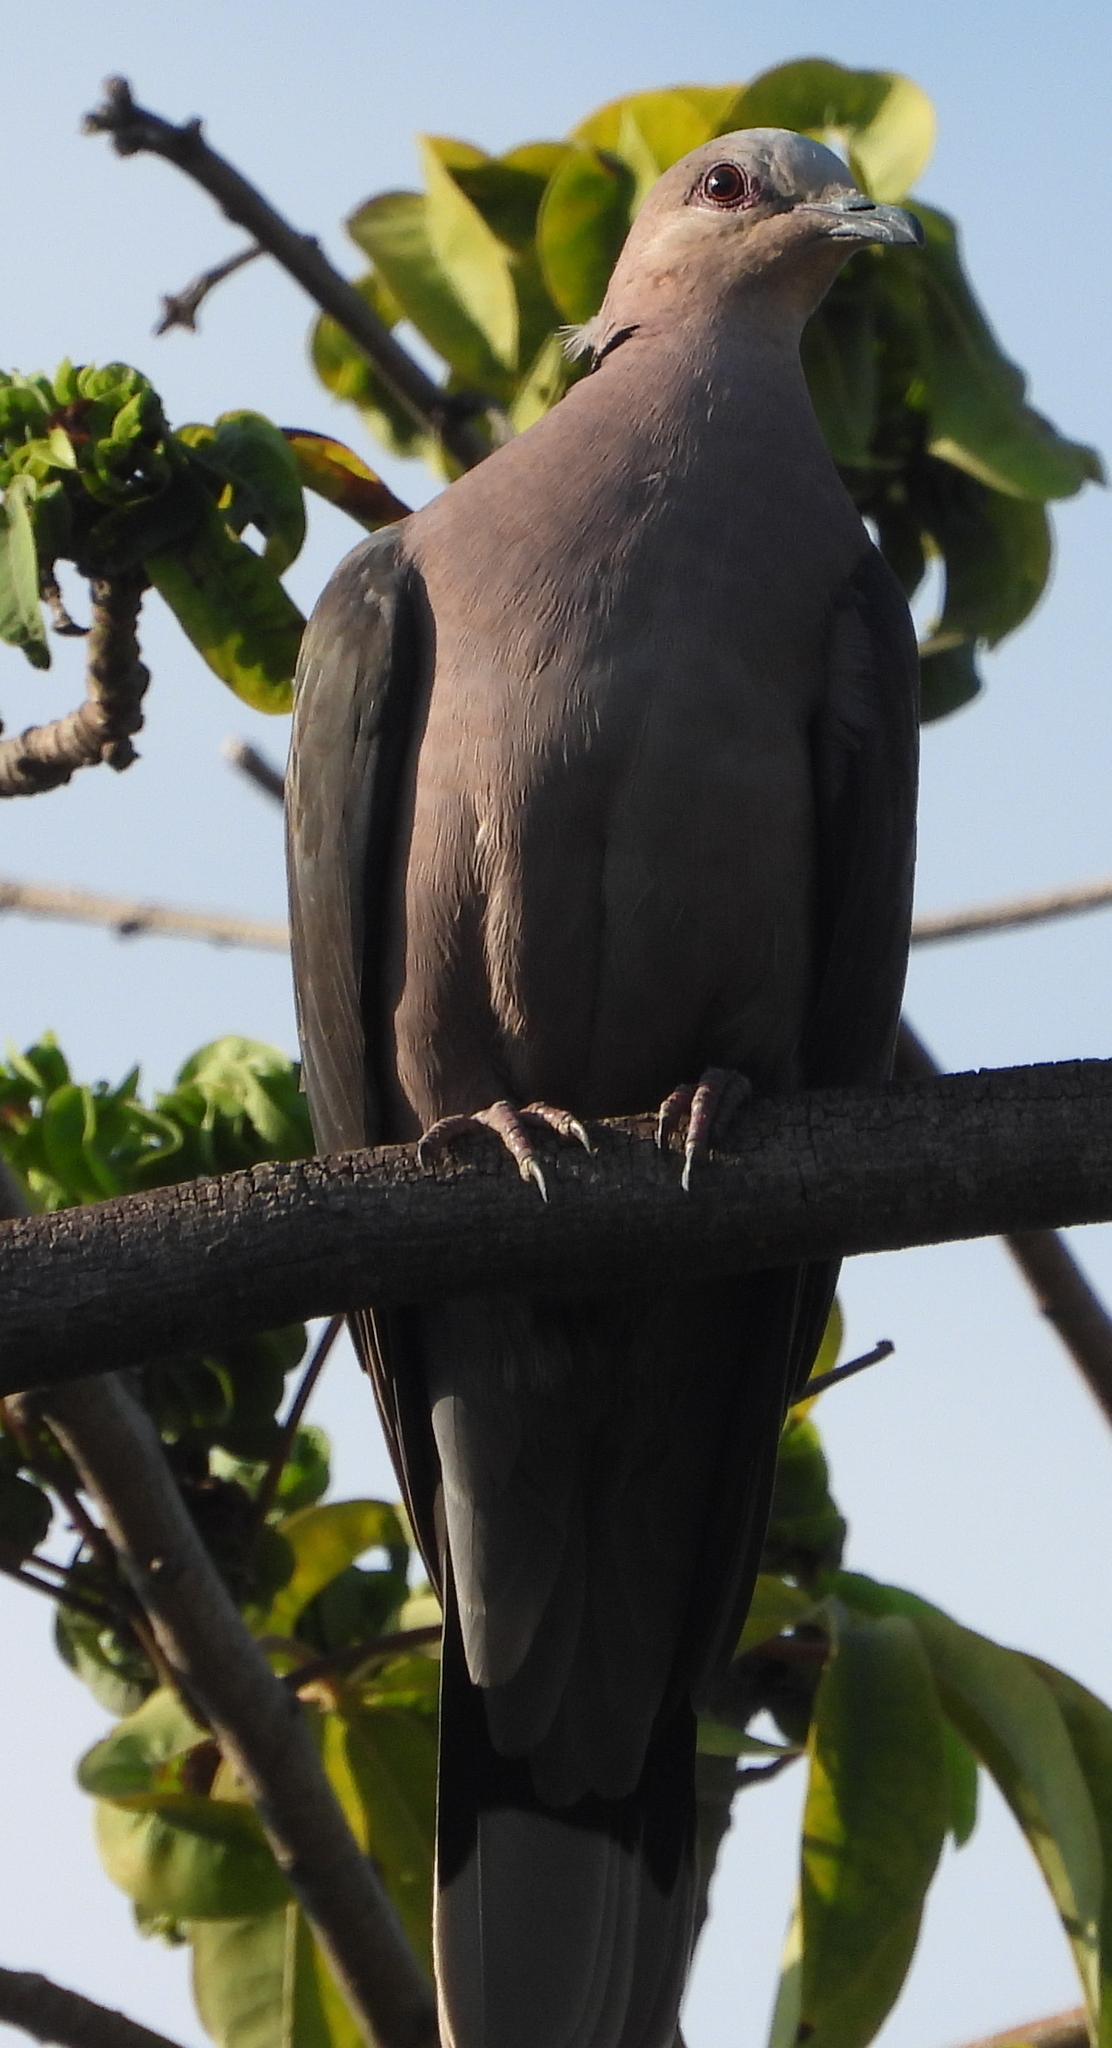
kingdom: Animalia
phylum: Chordata
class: Aves
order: Columbiformes
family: Columbidae
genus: Streptopelia
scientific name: Streptopelia semitorquata
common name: Red-eyed dove
